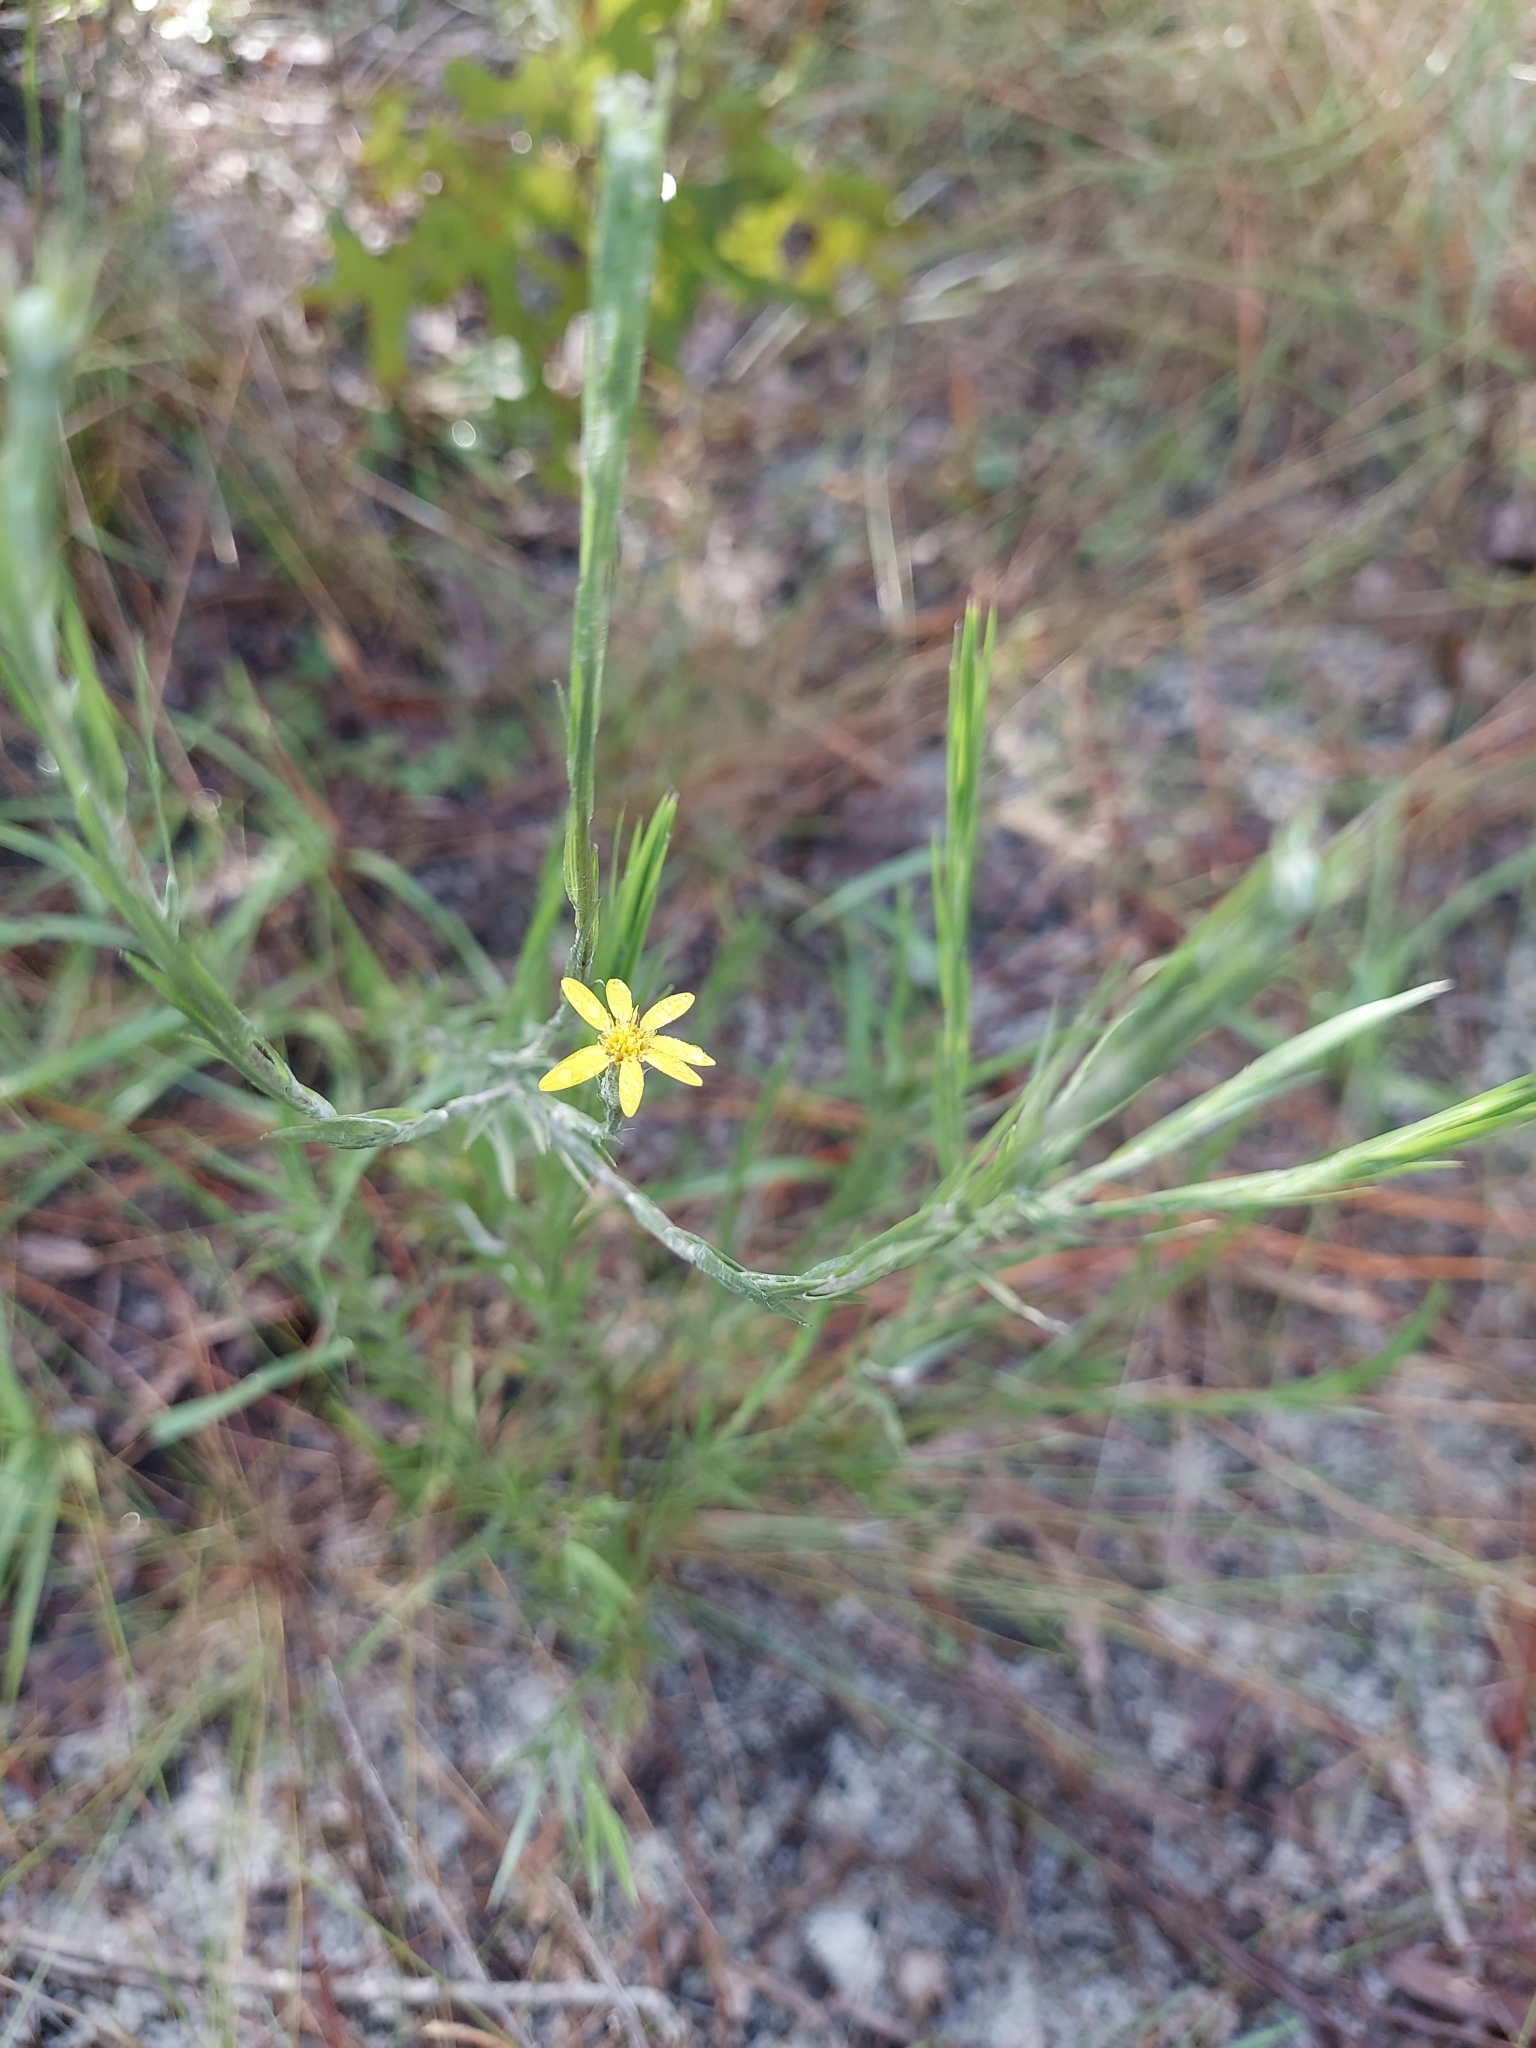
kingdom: Plantae
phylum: Tracheophyta
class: Magnoliopsida
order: Asterales
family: Asteraceae
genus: Pityopsis
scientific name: Pityopsis graminifolia
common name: Grass-leaf golden-aster
